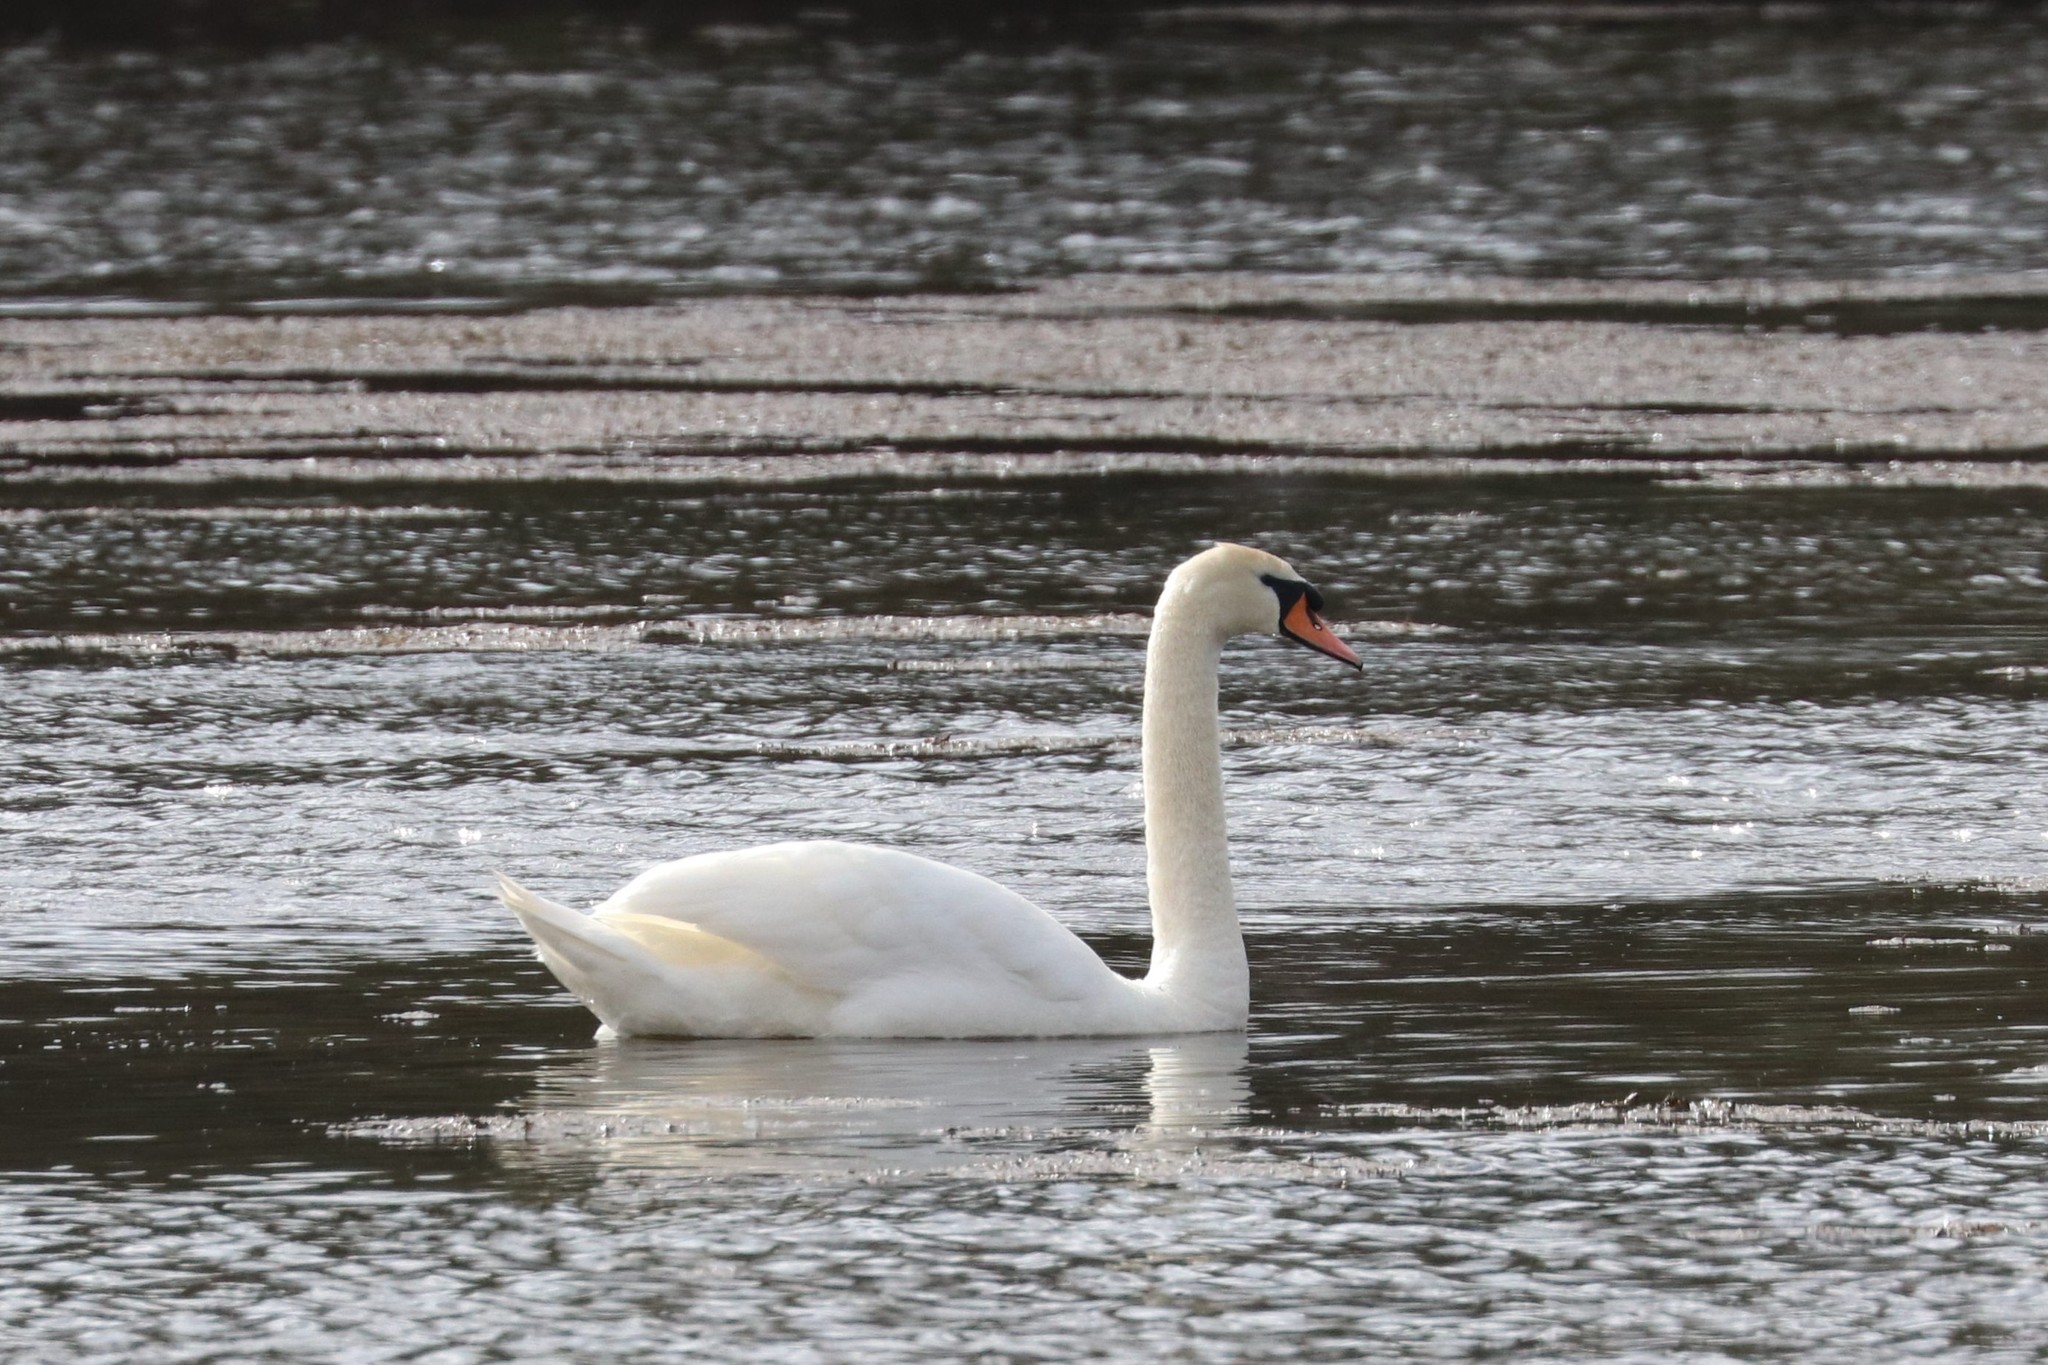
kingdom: Animalia
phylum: Chordata
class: Aves
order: Anseriformes
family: Anatidae
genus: Cygnus
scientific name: Cygnus olor
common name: Mute swan
